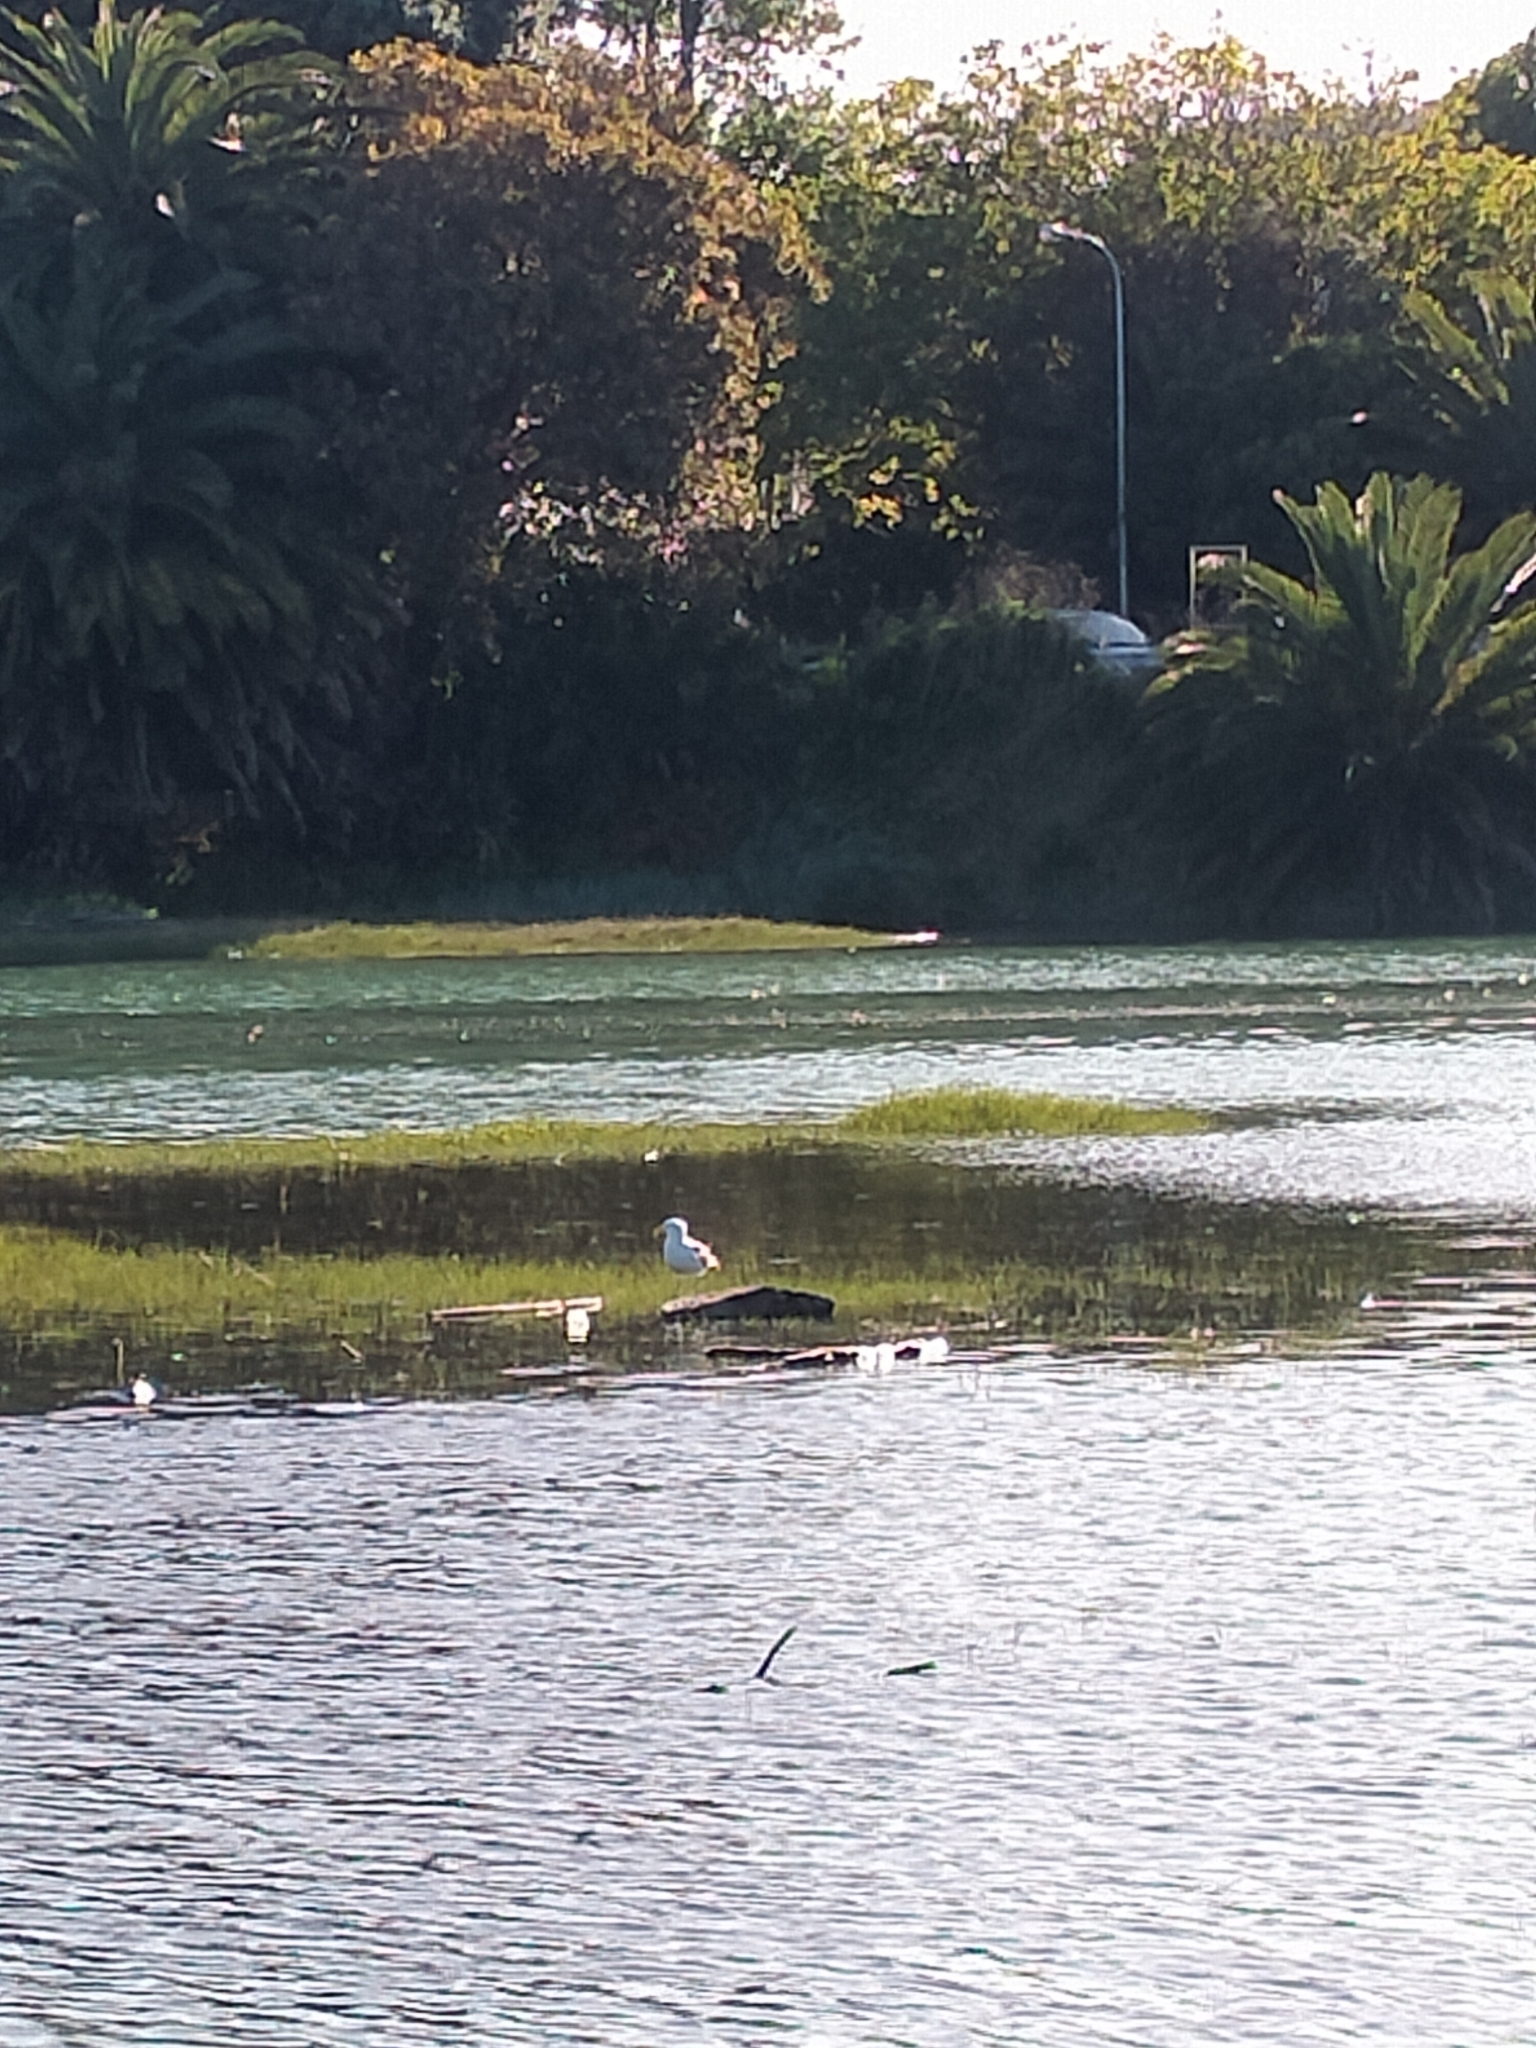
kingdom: Animalia
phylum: Chordata
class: Aves
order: Charadriiformes
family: Laridae
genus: Larus
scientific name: Larus dominicanus
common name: Kelp gull
